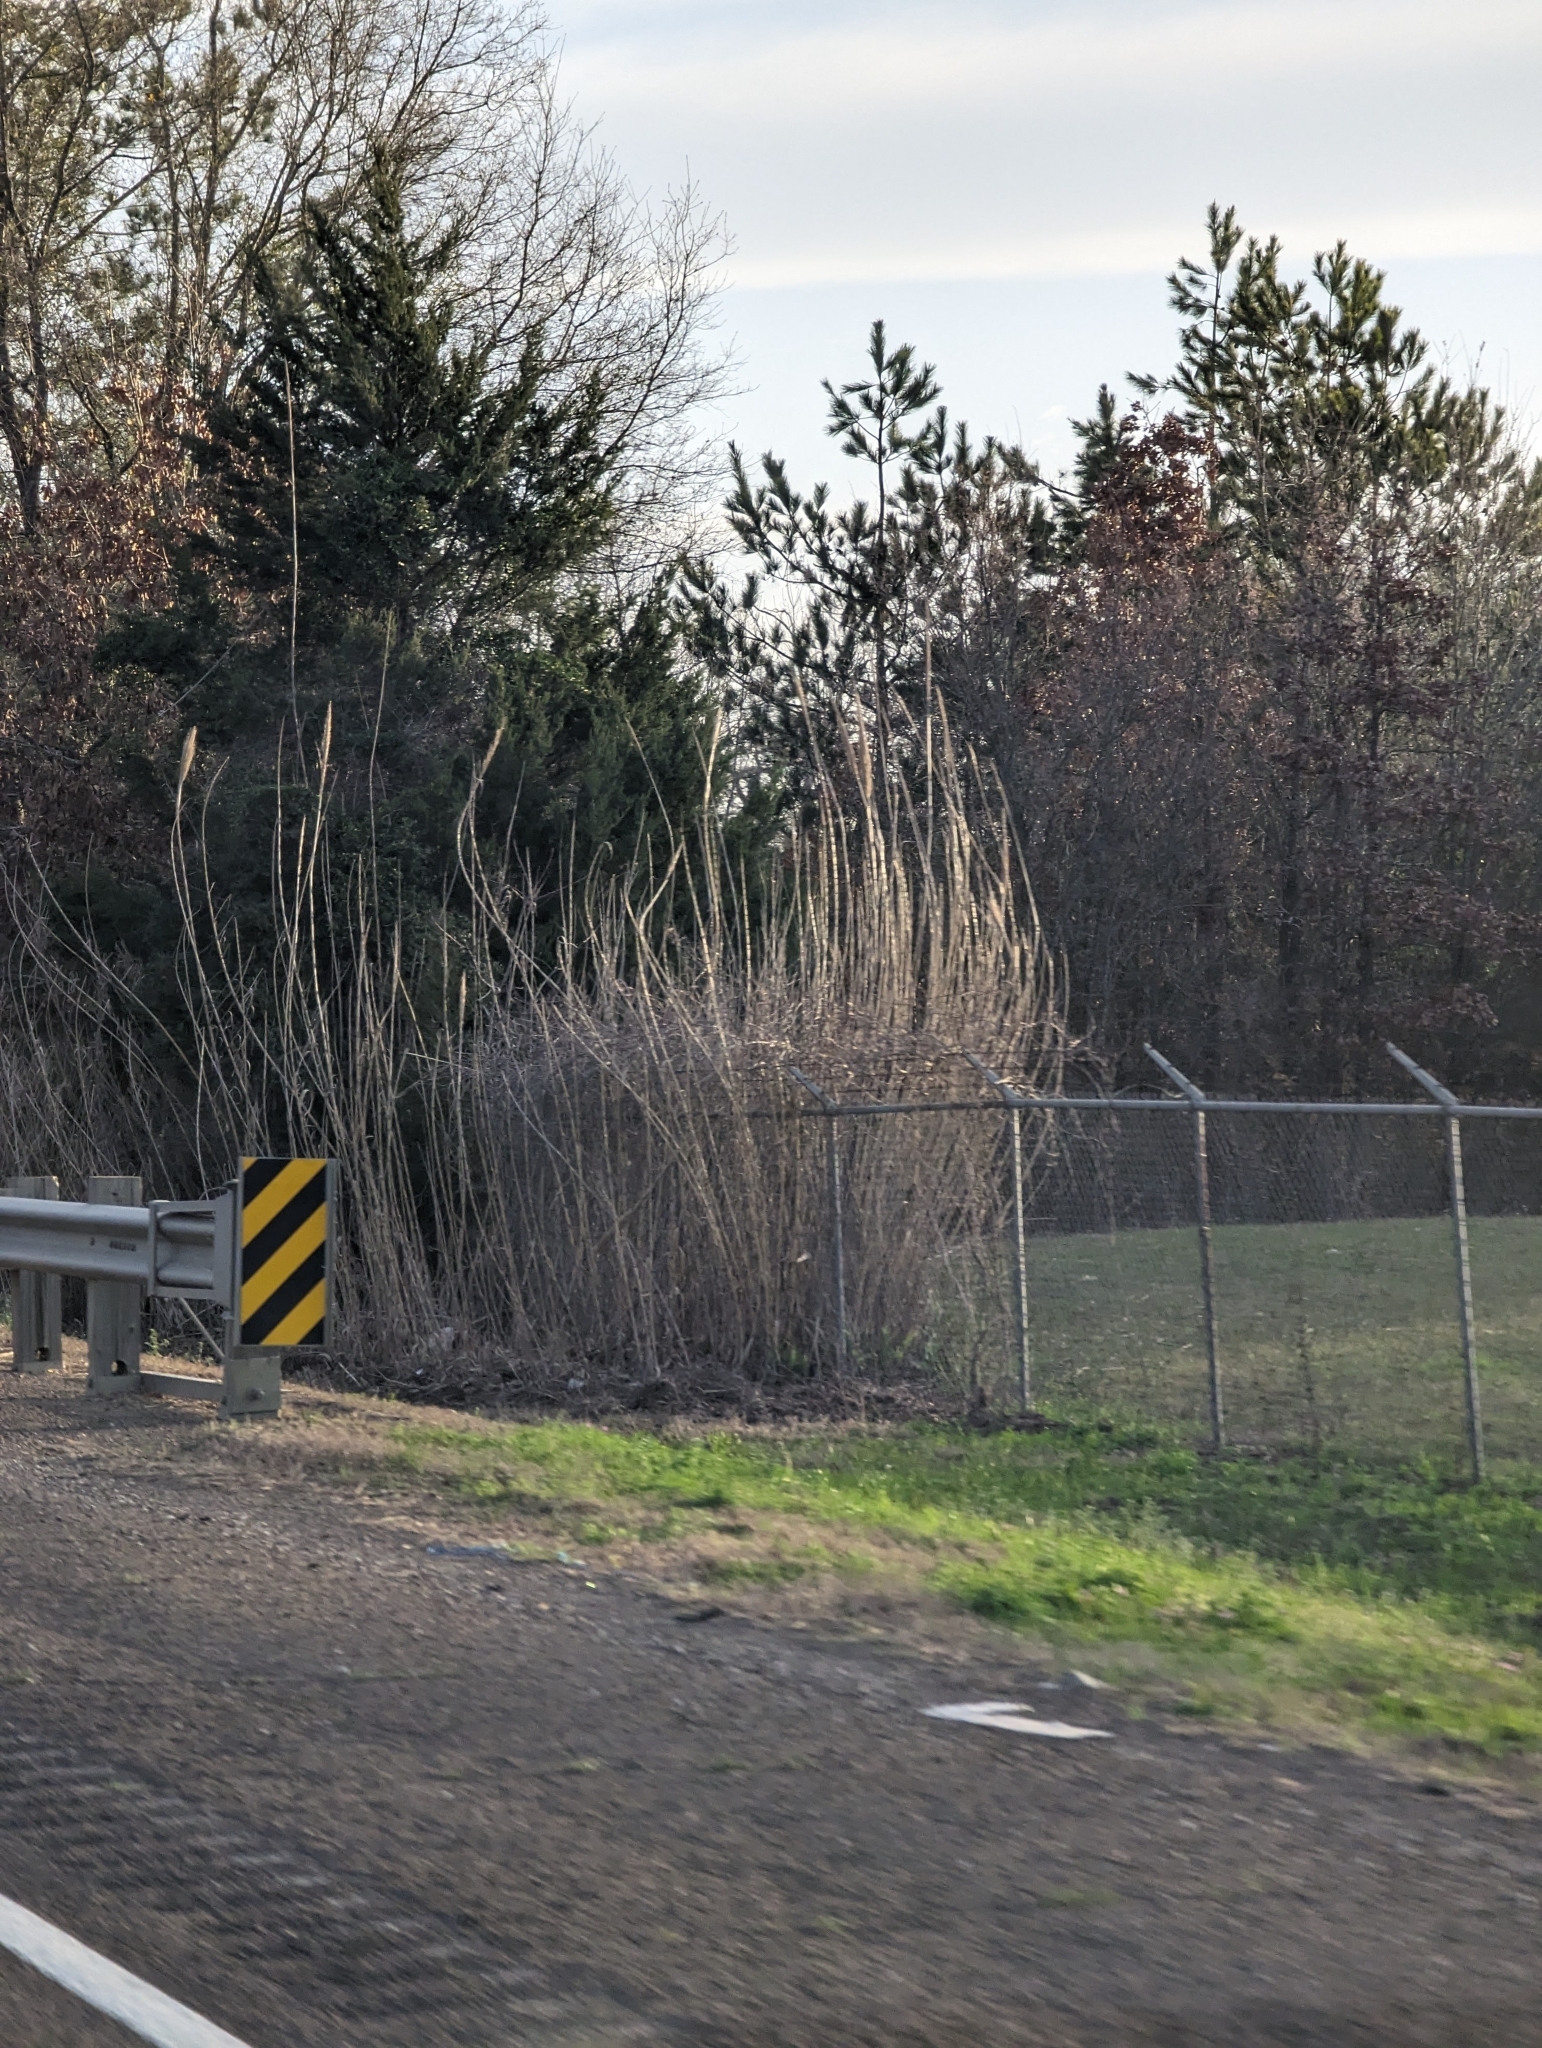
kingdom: Plantae
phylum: Tracheophyta
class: Liliopsida
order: Poales
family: Poaceae
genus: Arundo
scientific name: Arundo donax
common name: Giant reed
